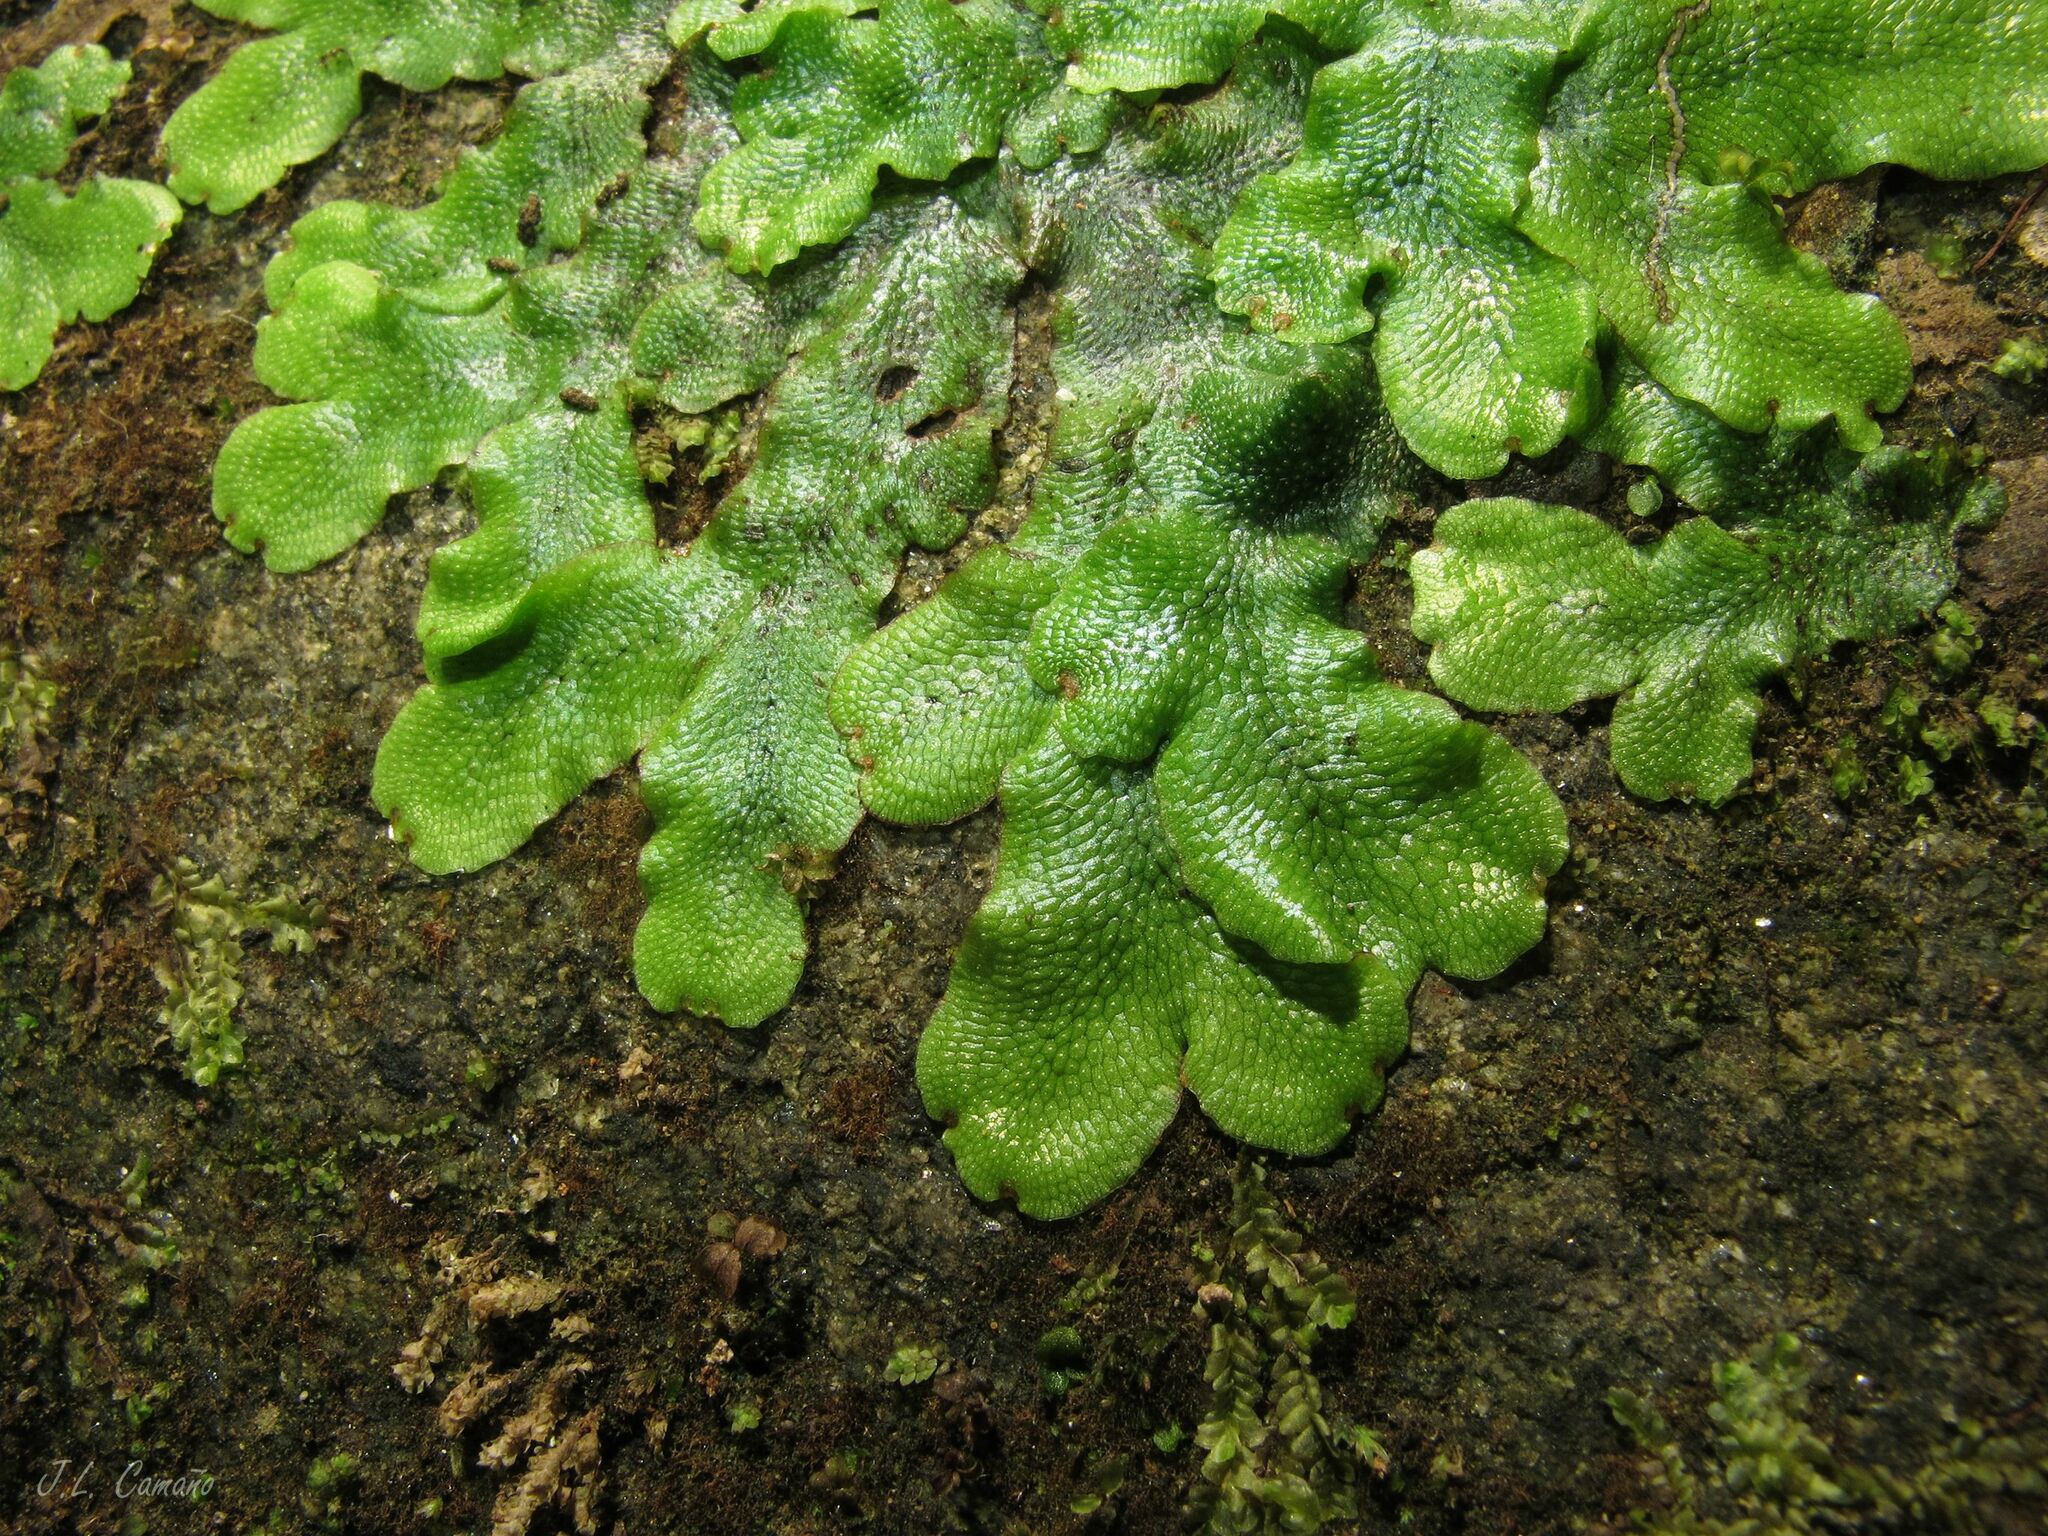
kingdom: Plantae
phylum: Marchantiophyta
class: Marchantiopsida
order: Marchantiales
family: Conocephalaceae
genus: Conocephalum
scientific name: Conocephalum conicum
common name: Great scented liverwort
